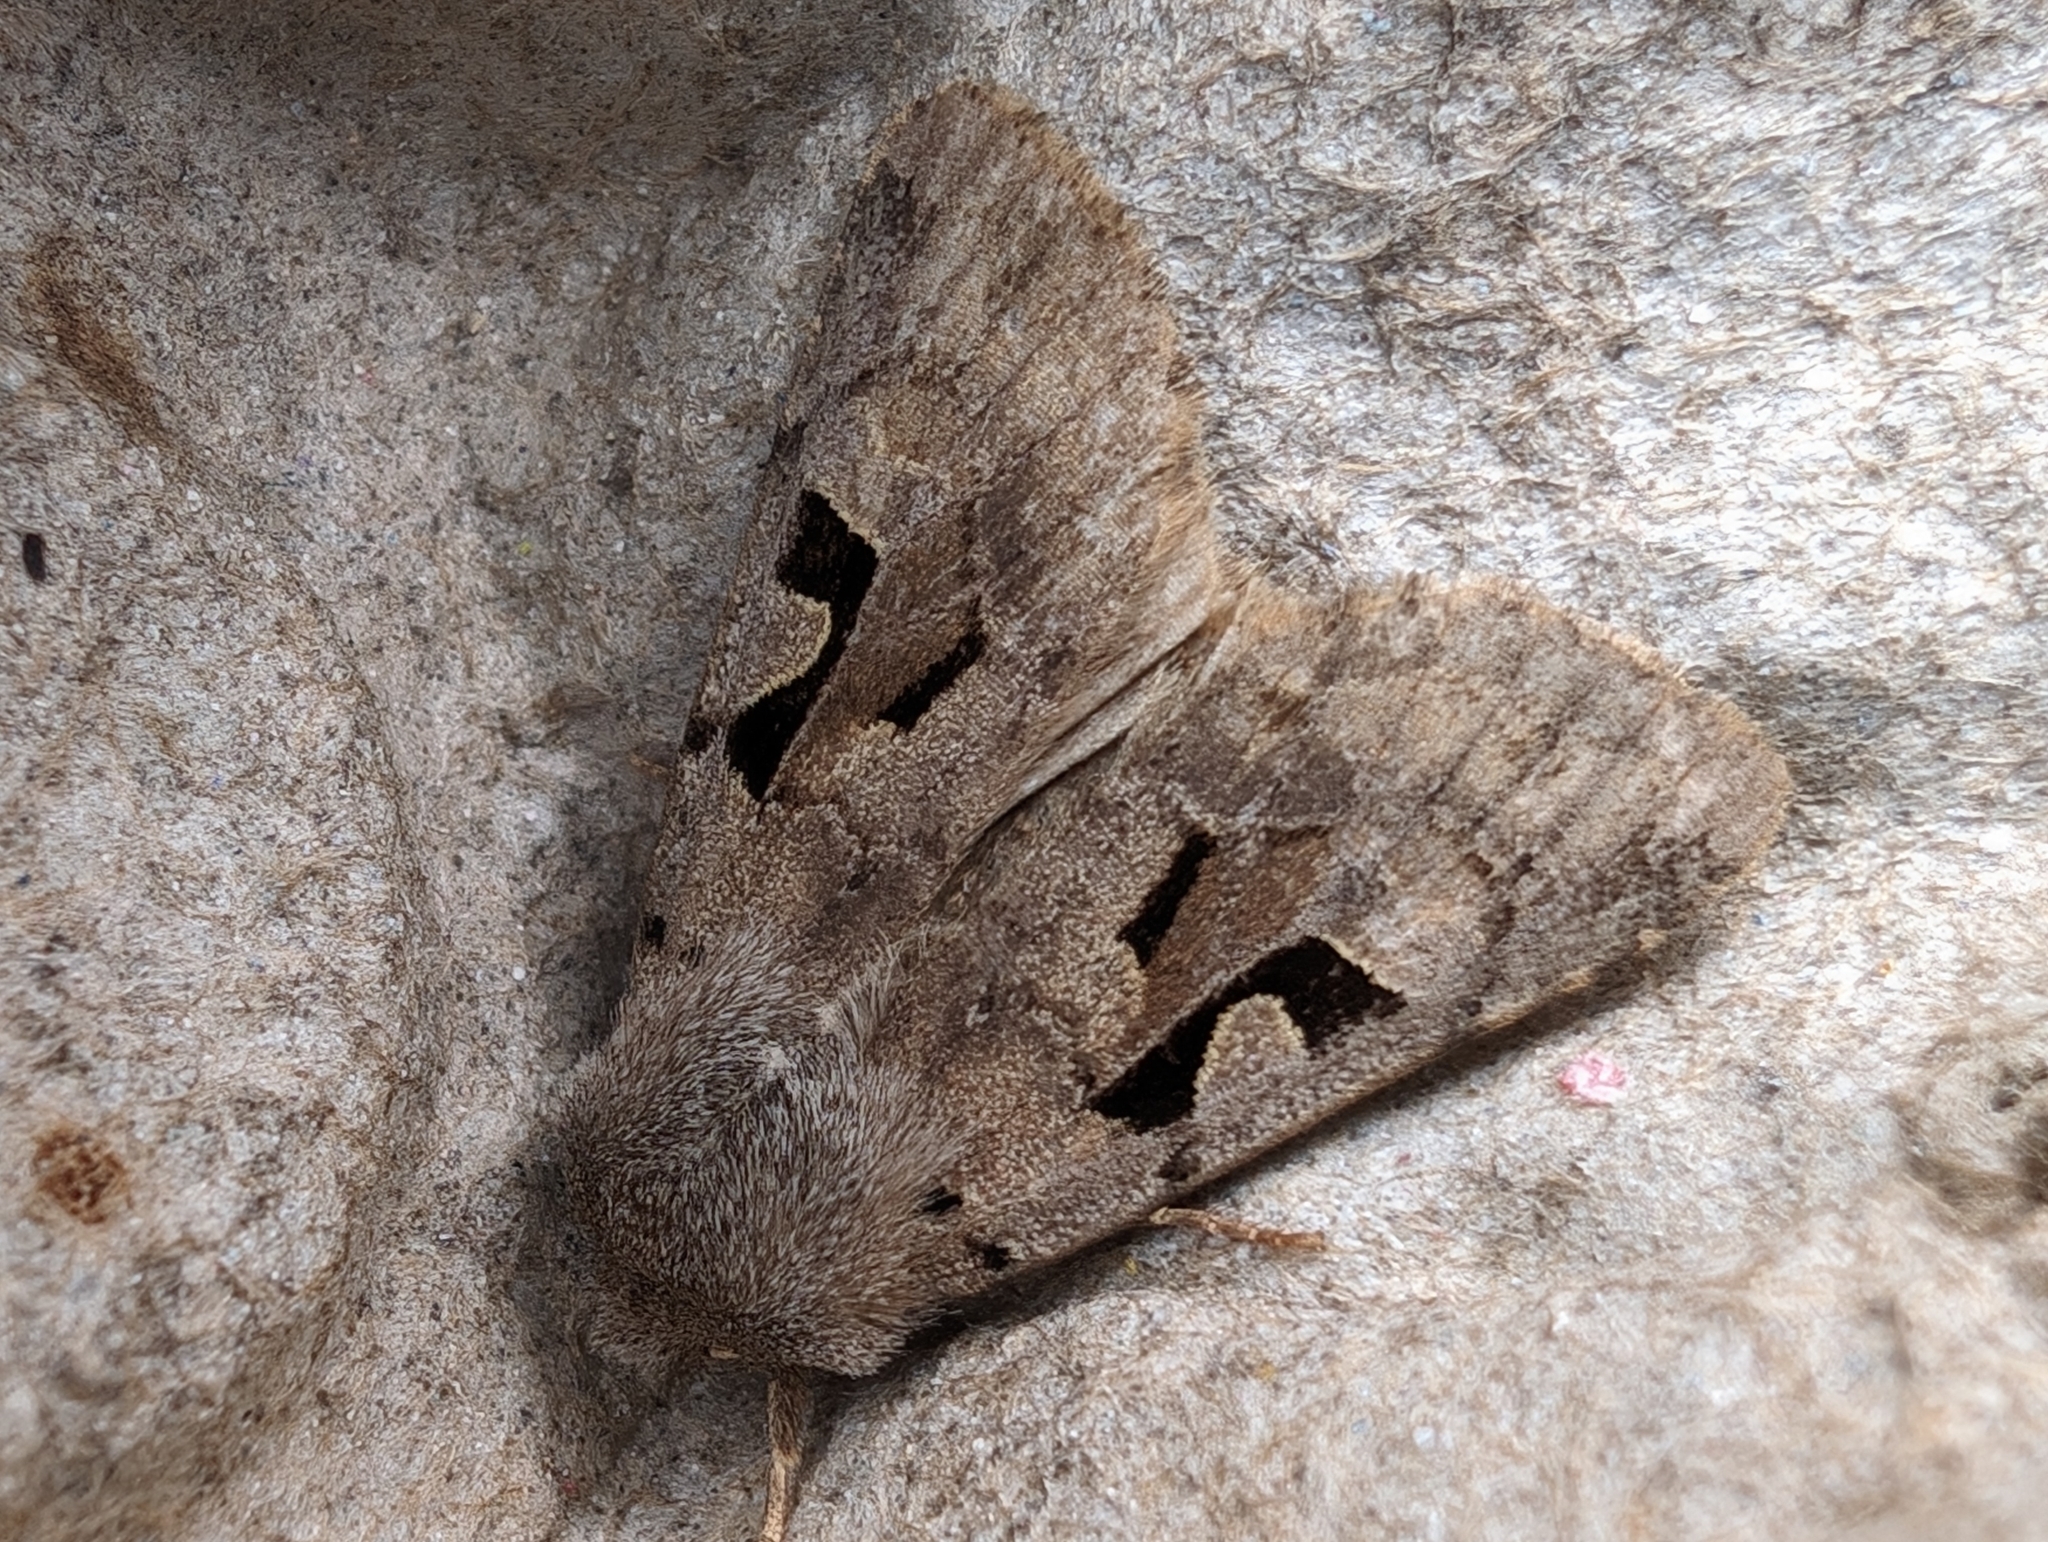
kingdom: Animalia
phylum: Arthropoda
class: Insecta
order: Lepidoptera
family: Noctuidae
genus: Orthosia
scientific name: Orthosia gothica
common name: Hebrew character
